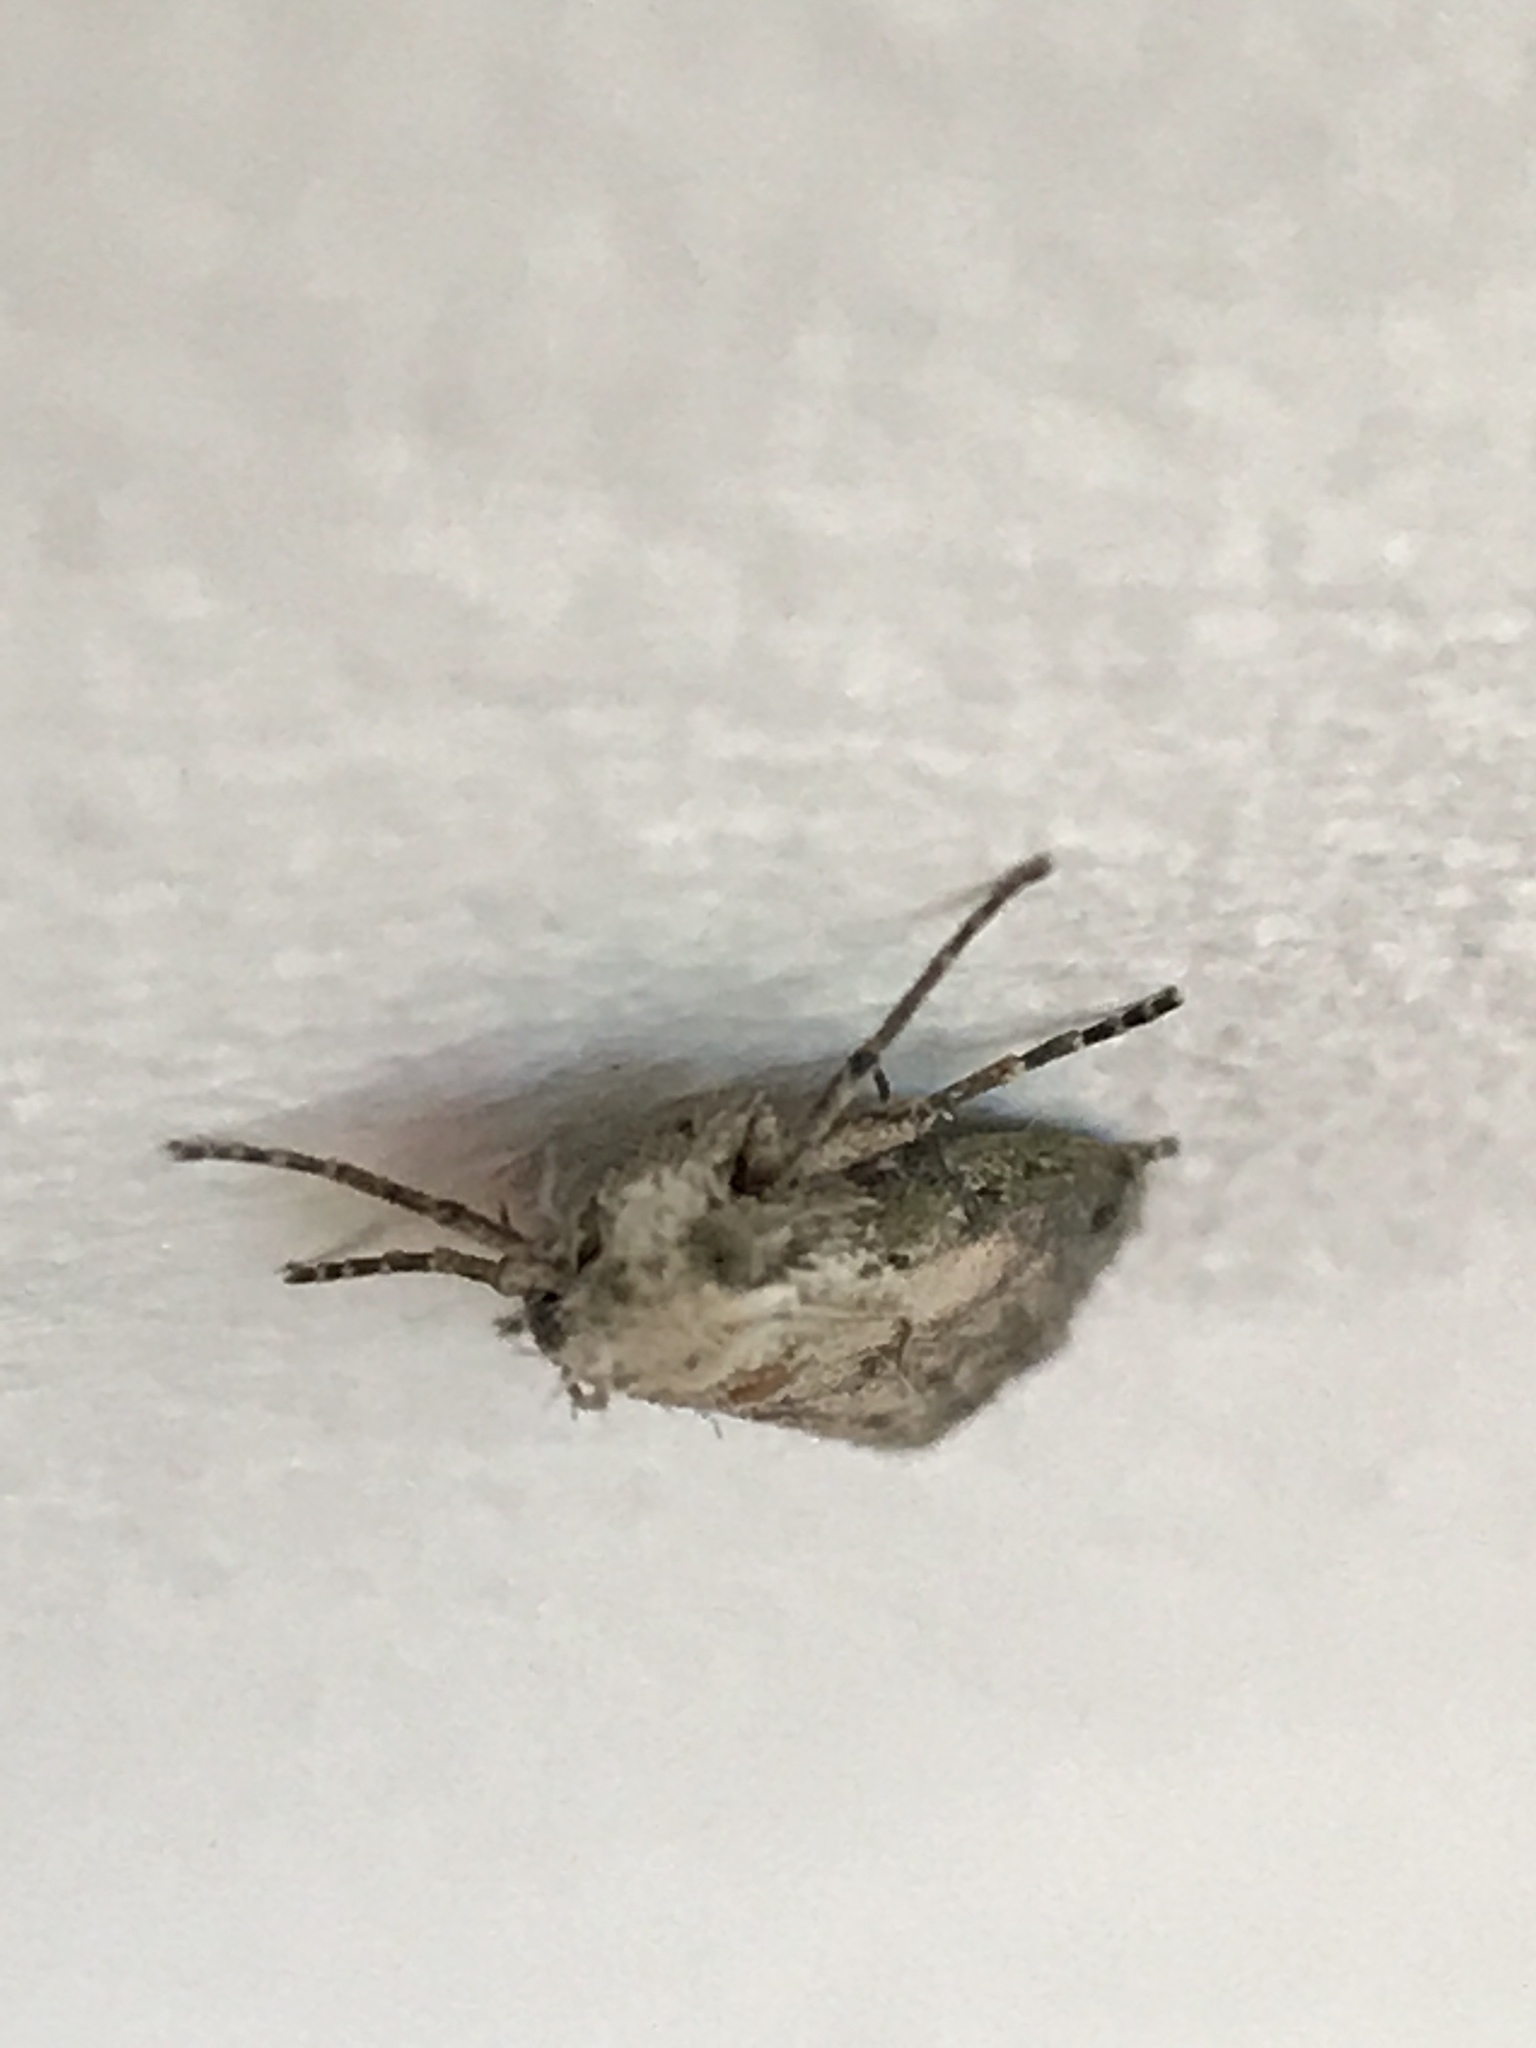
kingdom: Animalia
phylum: Arthropoda
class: Insecta
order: Lepidoptera
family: Pyralidae
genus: Aphomia
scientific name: Aphomia sociella
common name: Bee moth
